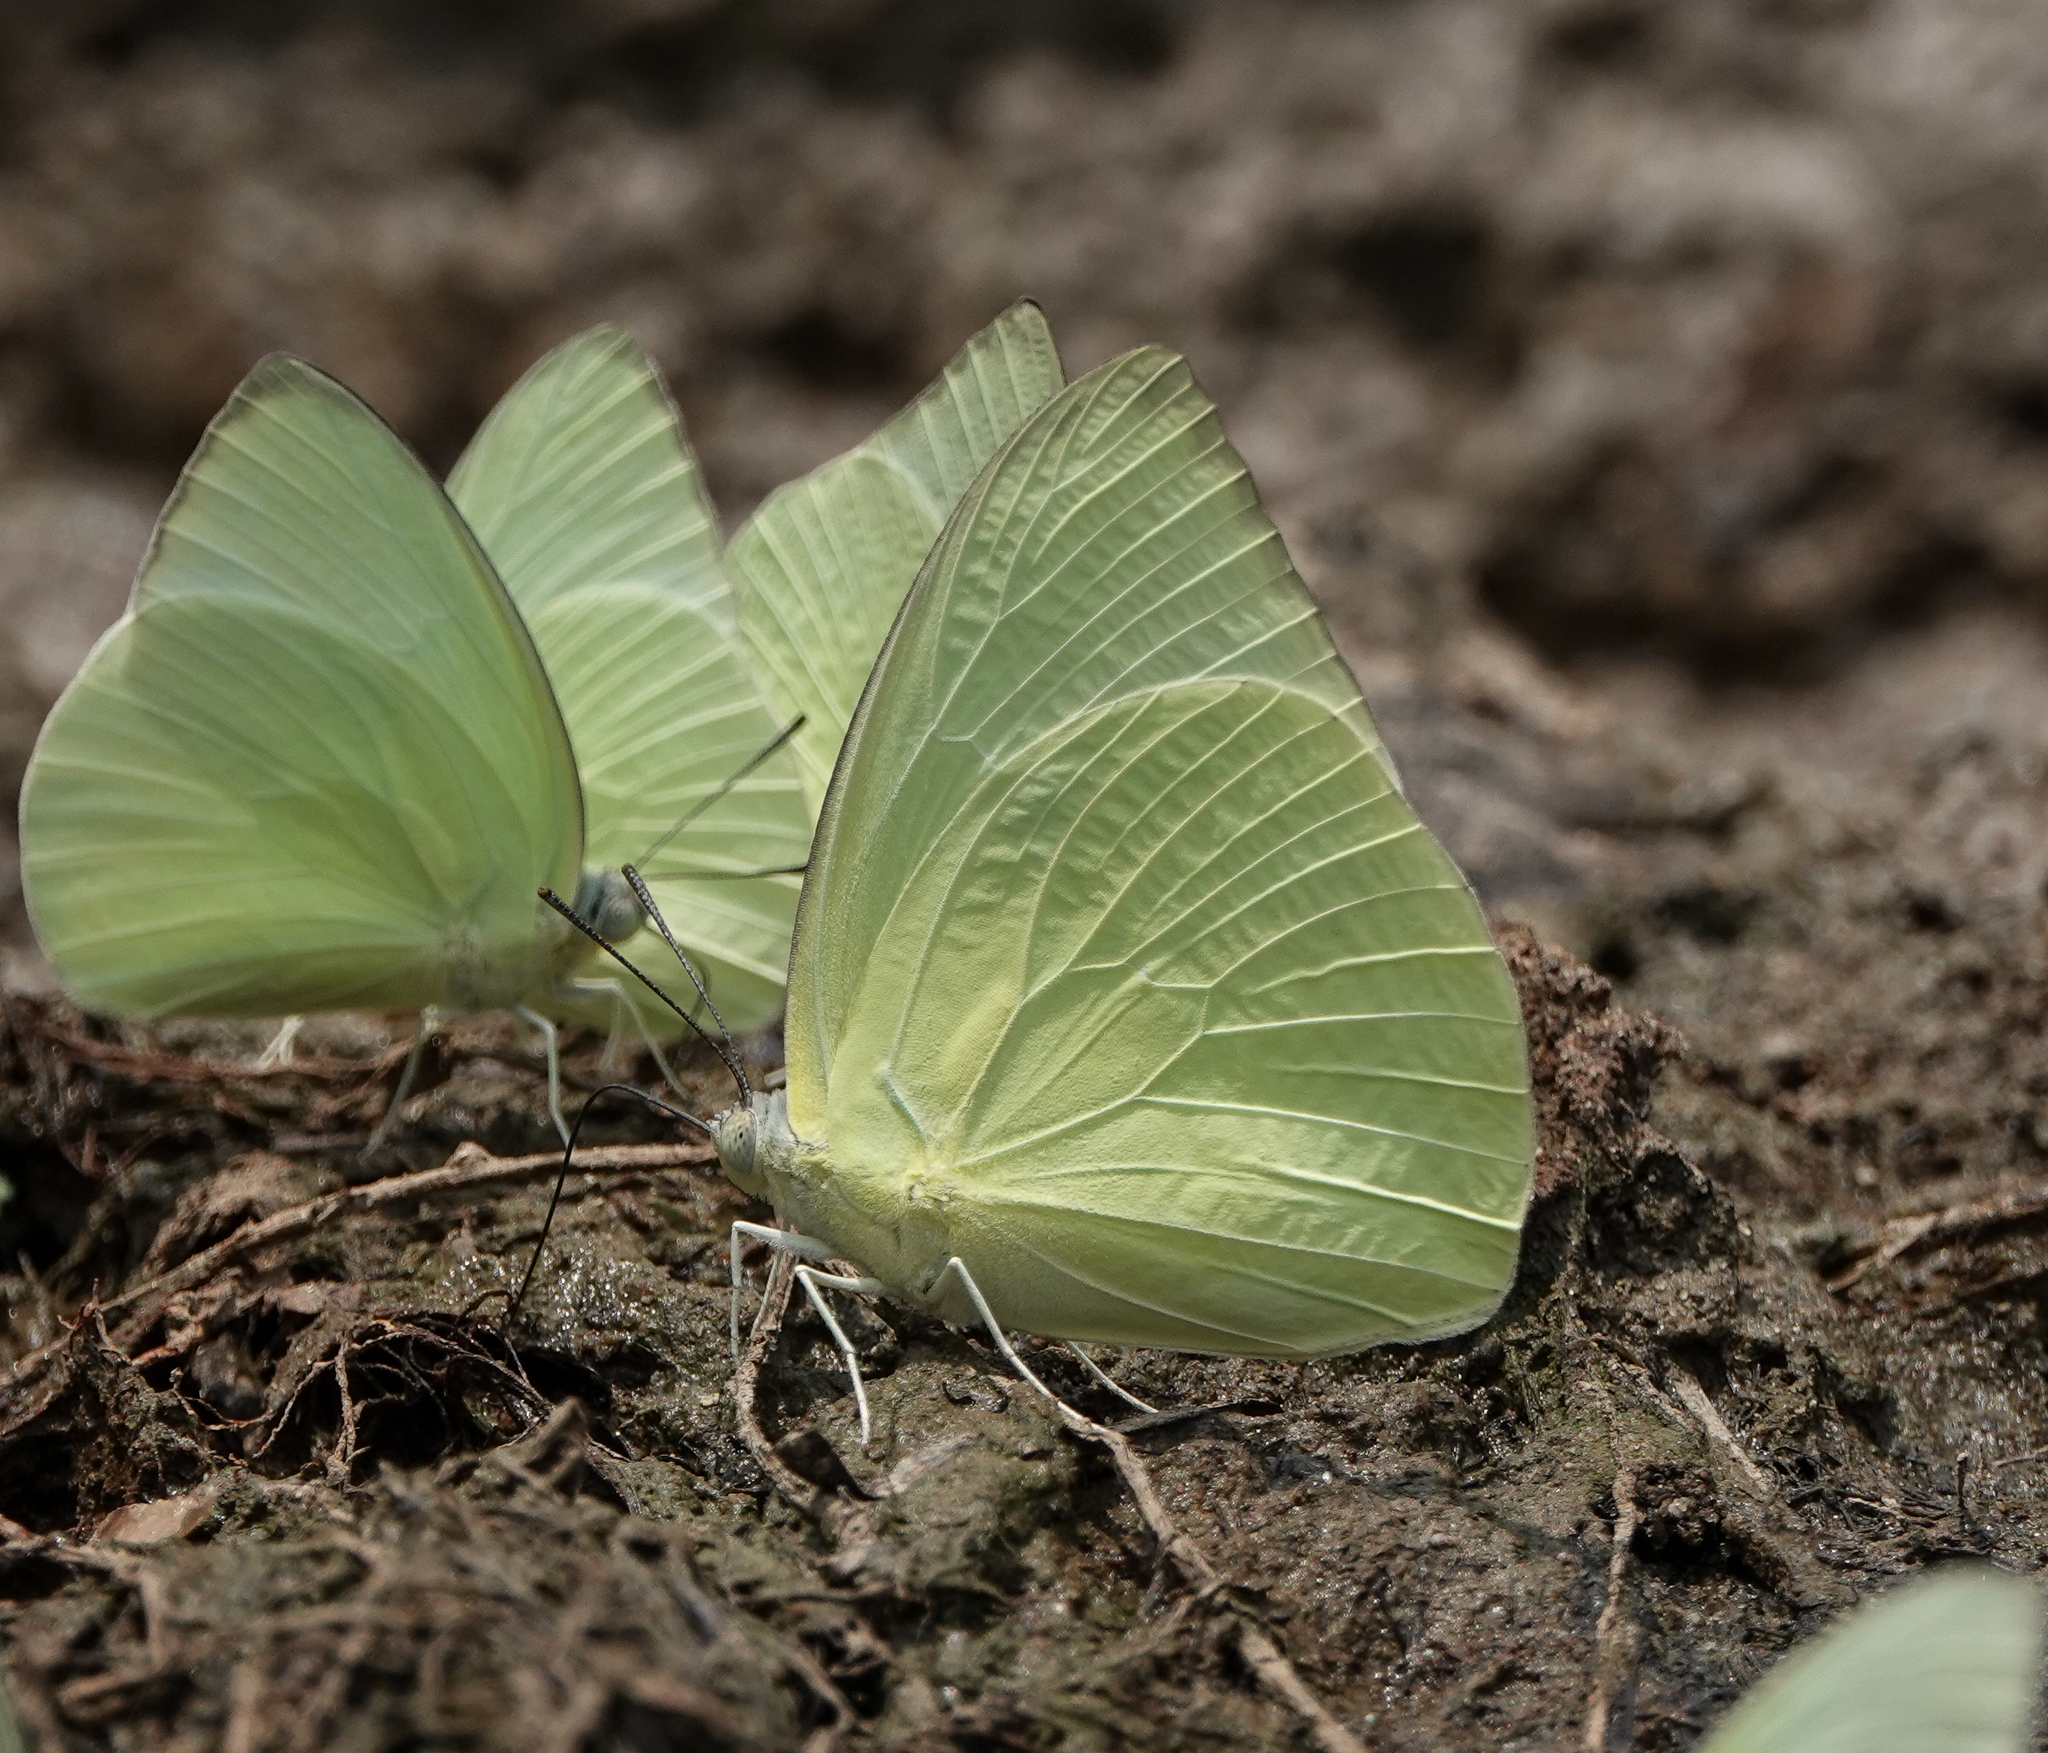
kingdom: Animalia
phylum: Arthropoda
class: Insecta
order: Lepidoptera
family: Pieridae
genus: Catopsilia
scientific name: Catopsilia pomona
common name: Common emigrant
